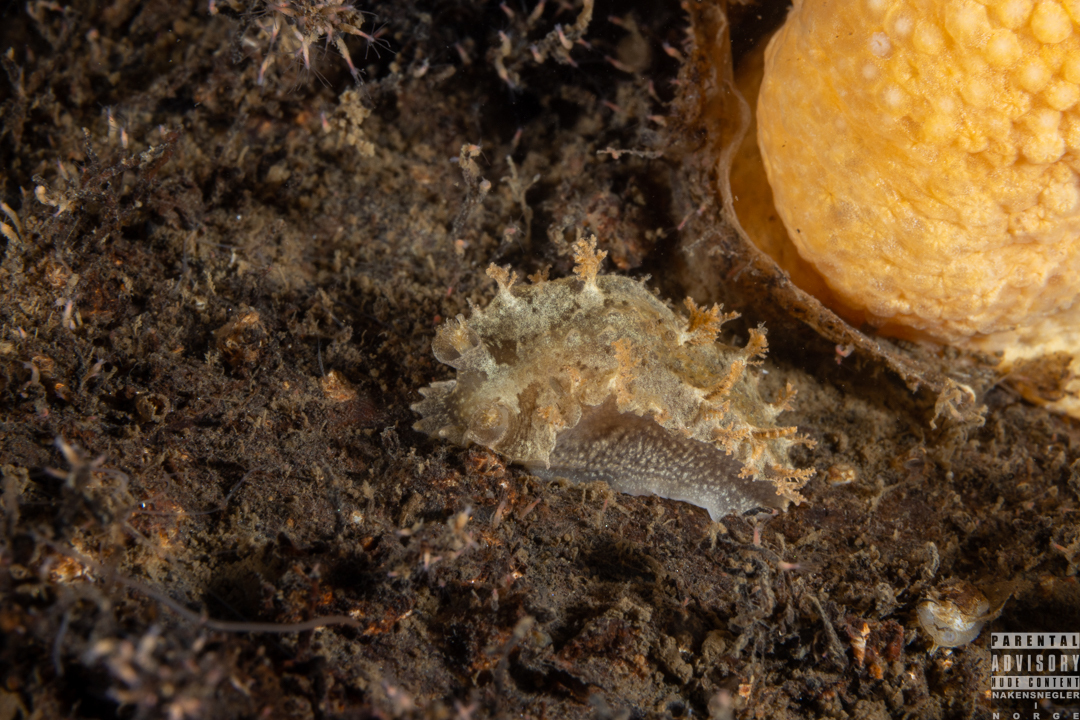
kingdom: Animalia
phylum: Mollusca
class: Gastropoda
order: Nudibranchia
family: Tritoniidae
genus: Duvaucelia
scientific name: Duvaucelia plebeia
